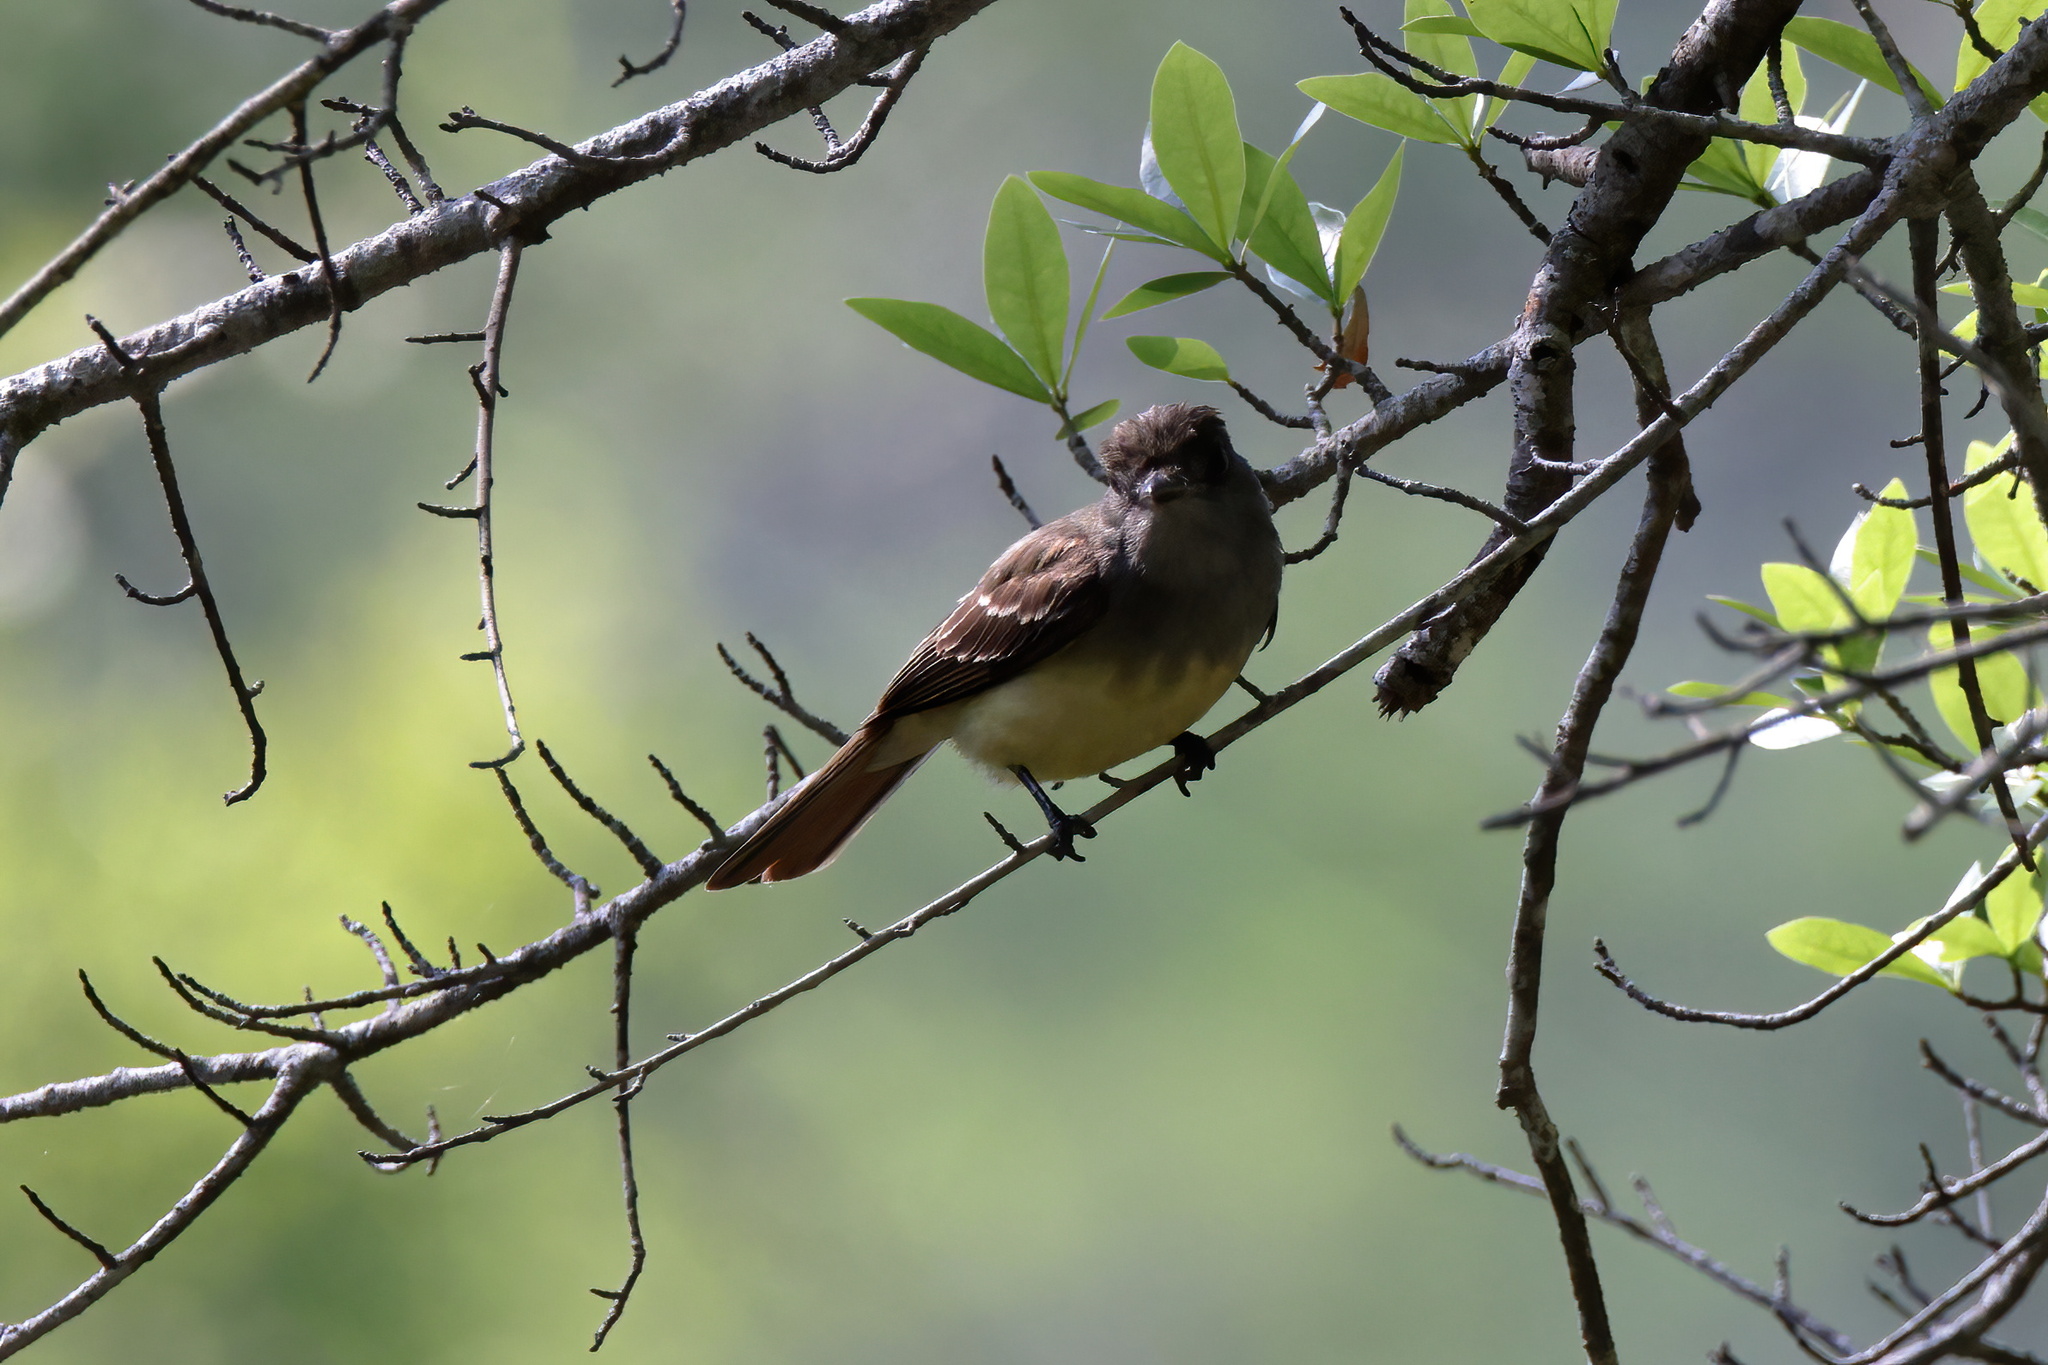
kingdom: Animalia
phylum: Chordata
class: Aves
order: Passeriformes
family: Tyrannidae
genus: Myiarchus
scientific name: Myiarchus crinitus
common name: Great crested flycatcher
